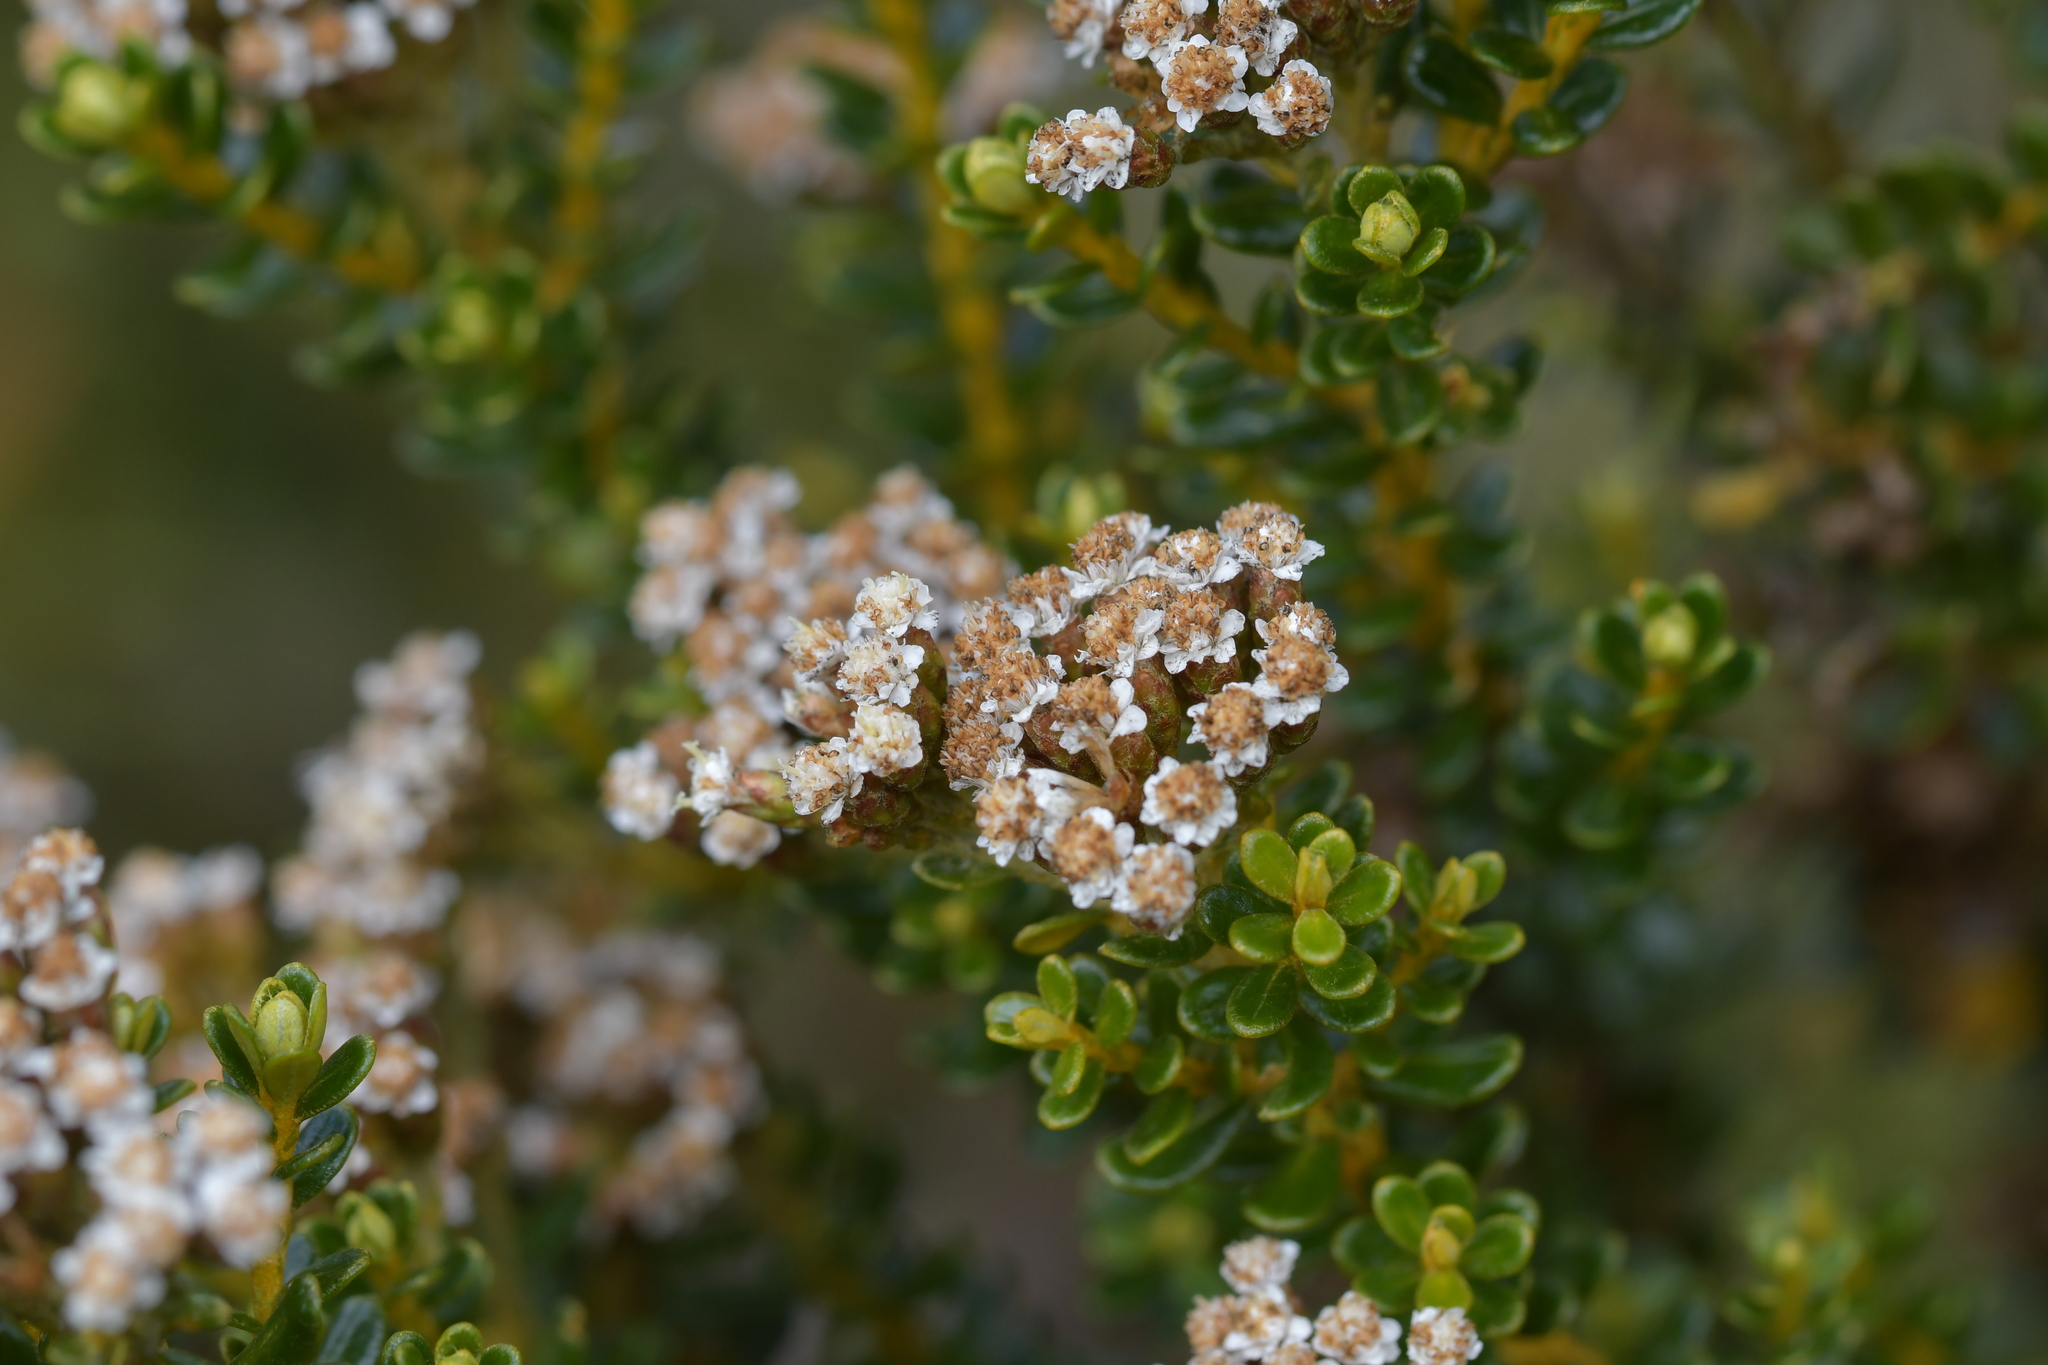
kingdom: Plantae
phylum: Tracheophyta
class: Magnoliopsida
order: Asterales
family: Asteraceae
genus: Ozothamnus
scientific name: Ozothamnus leptophyllus
